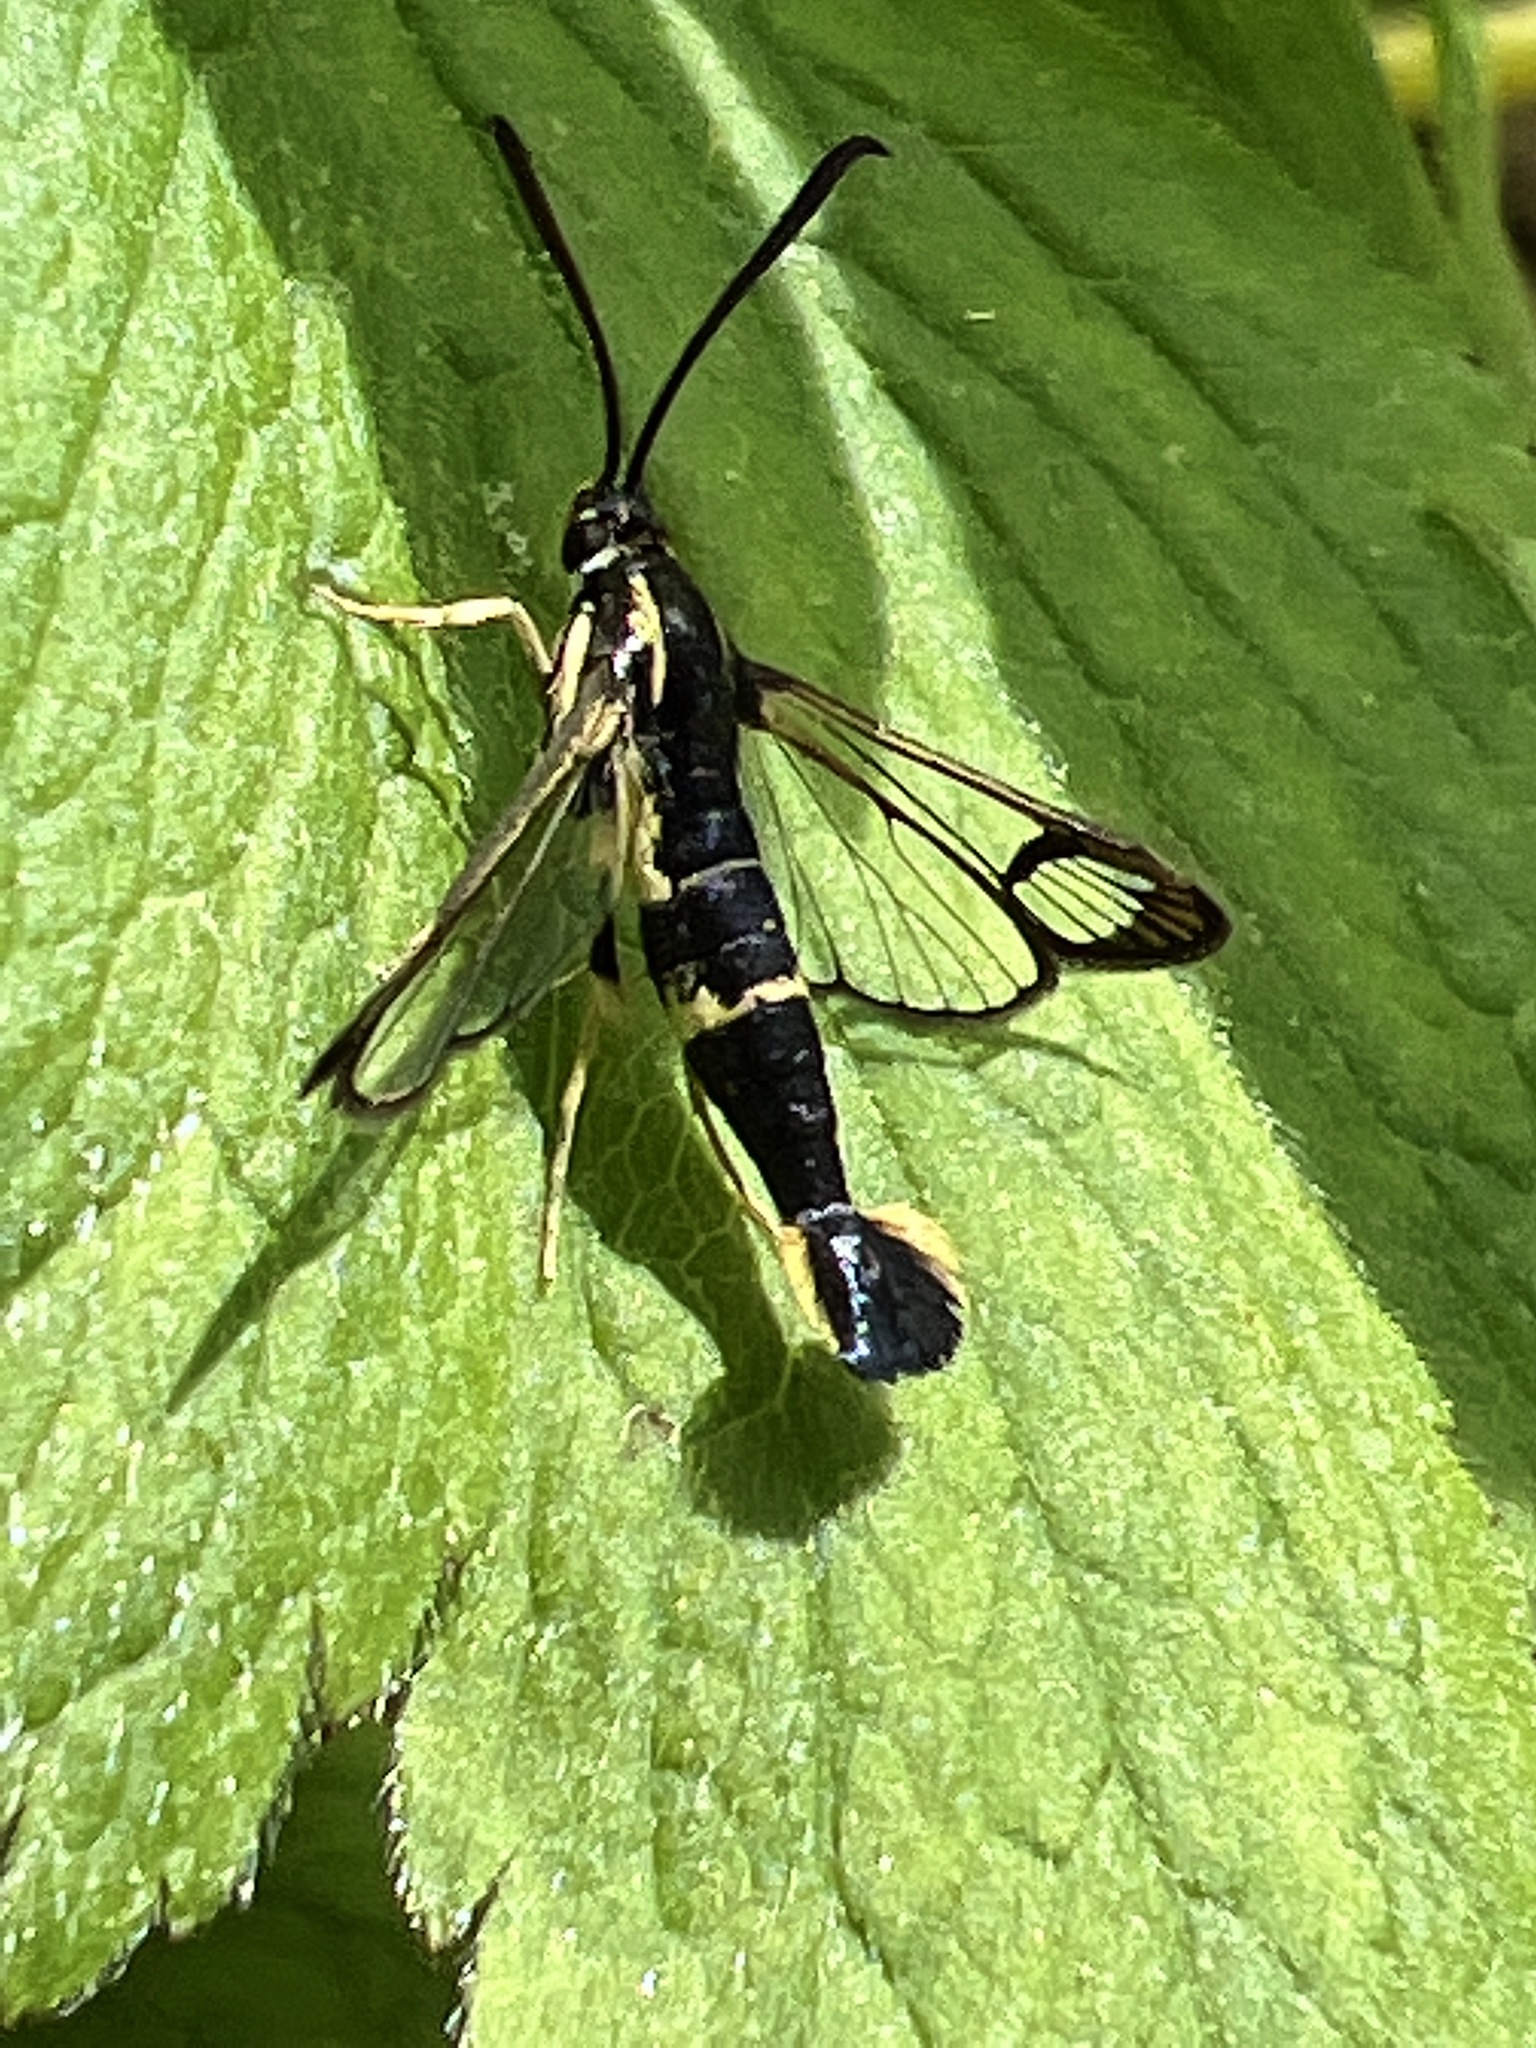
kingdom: Animalia
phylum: Arthropoda
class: Insecta
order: Lepidoptera
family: Sesiidae
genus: Synanthedon
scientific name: Synanthedon scitula
